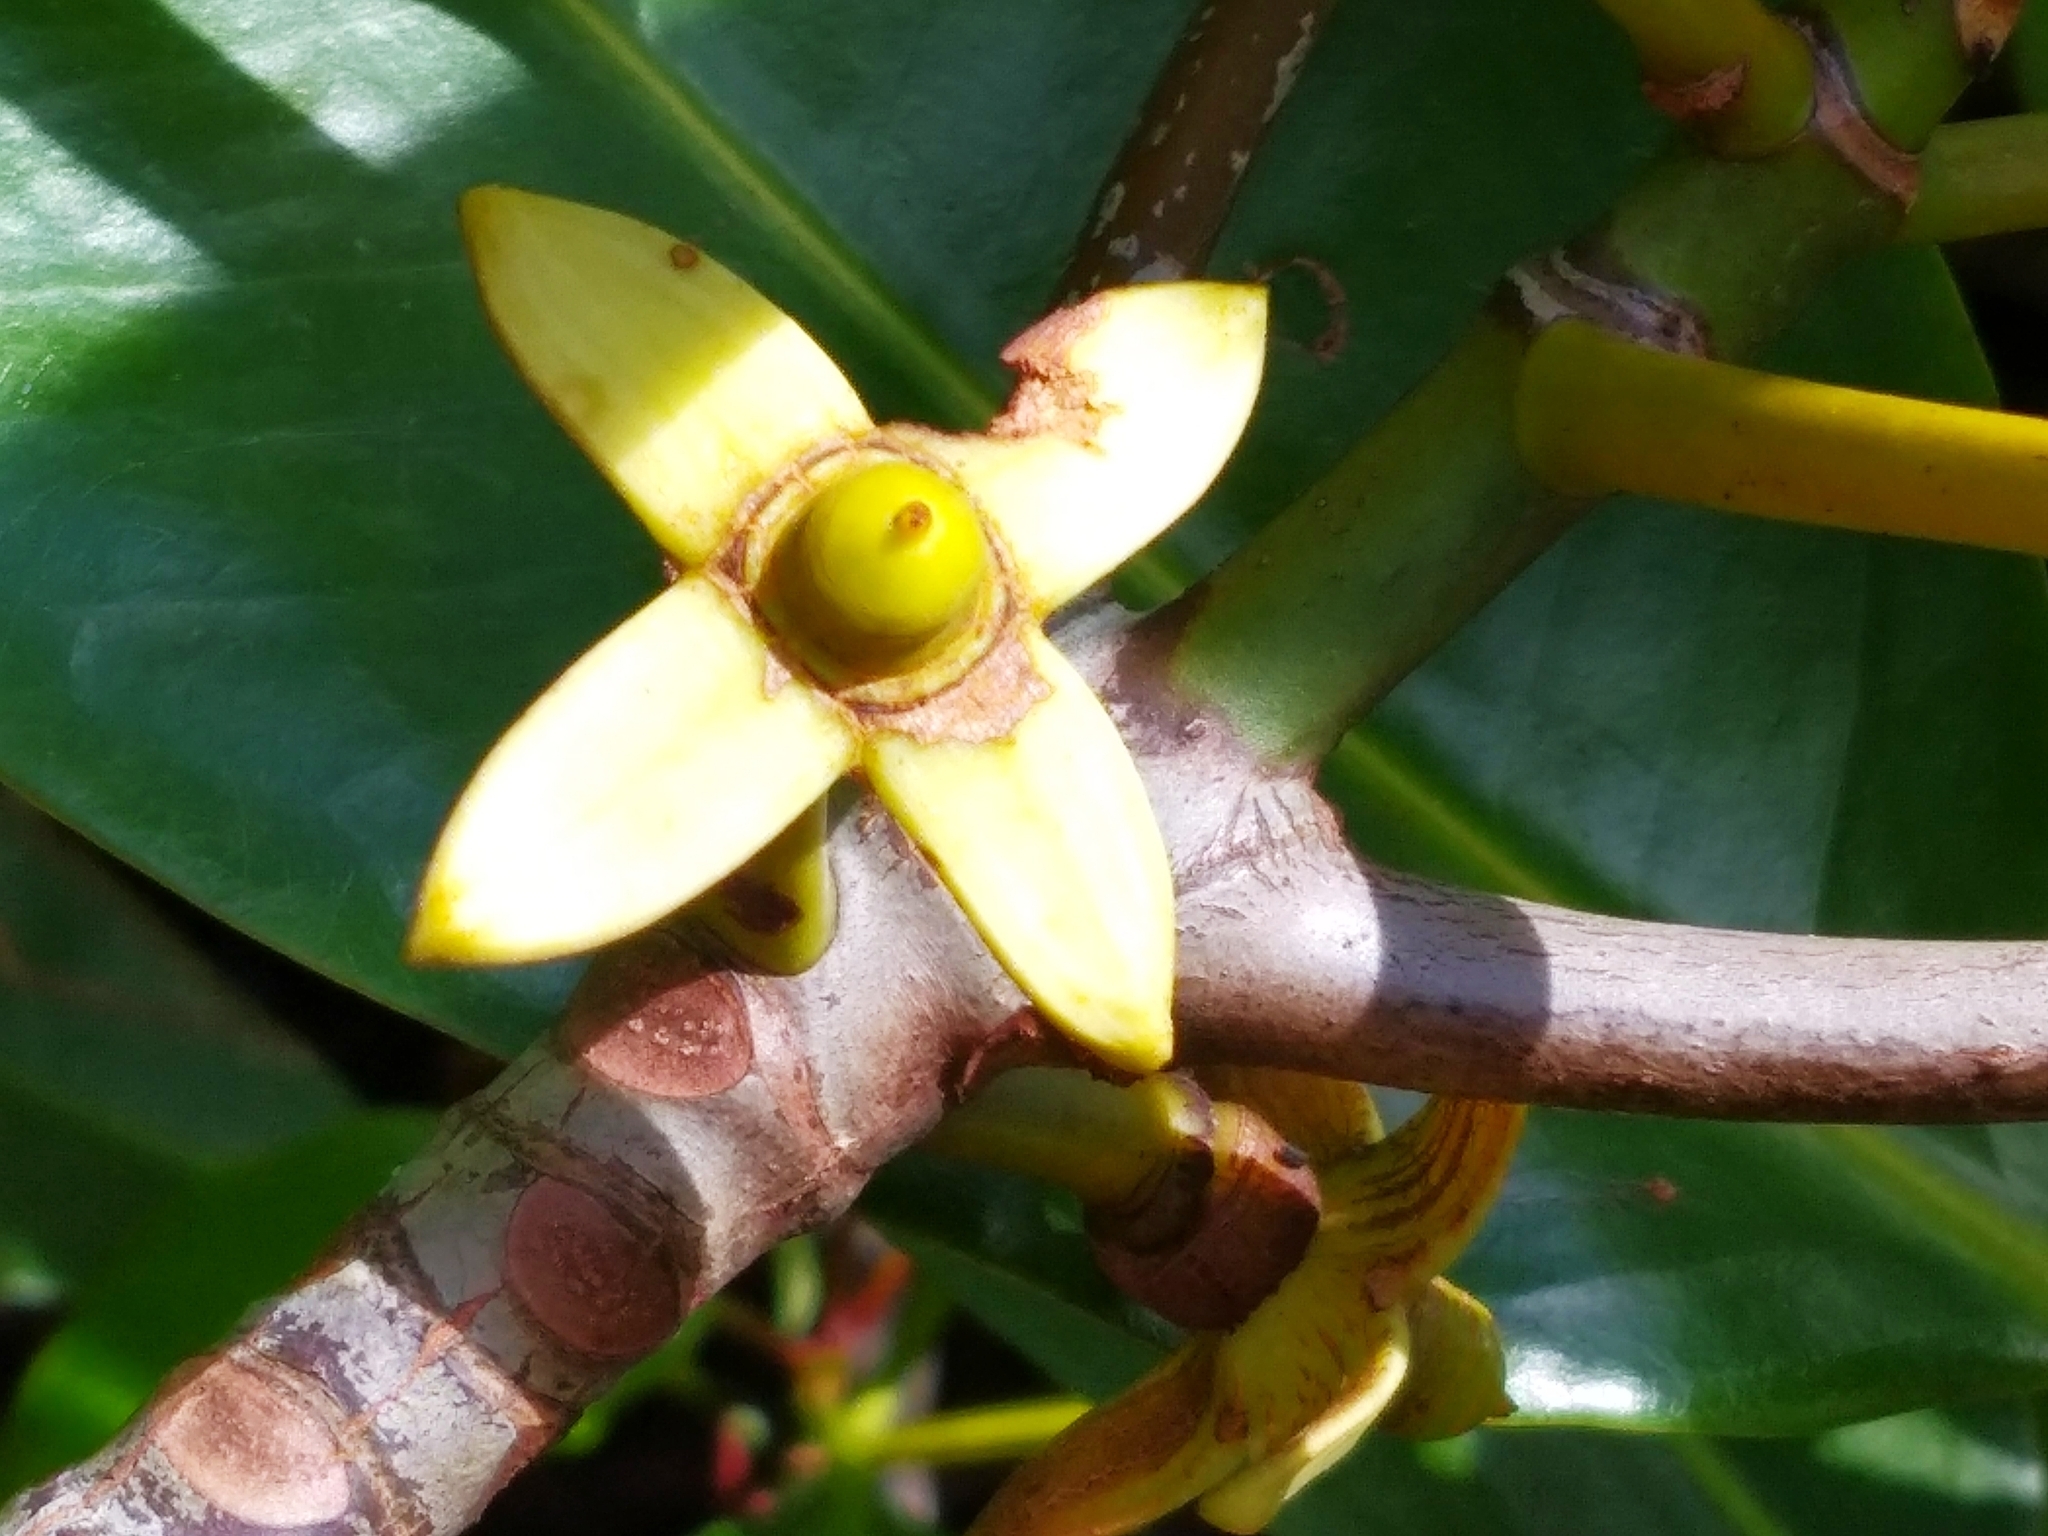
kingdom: Plantae
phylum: Tracheophyta
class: Magnoliopsida
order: Malpighiales
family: Rhizophoraceae
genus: Rhizophora
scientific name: Rhizophora apiculata
